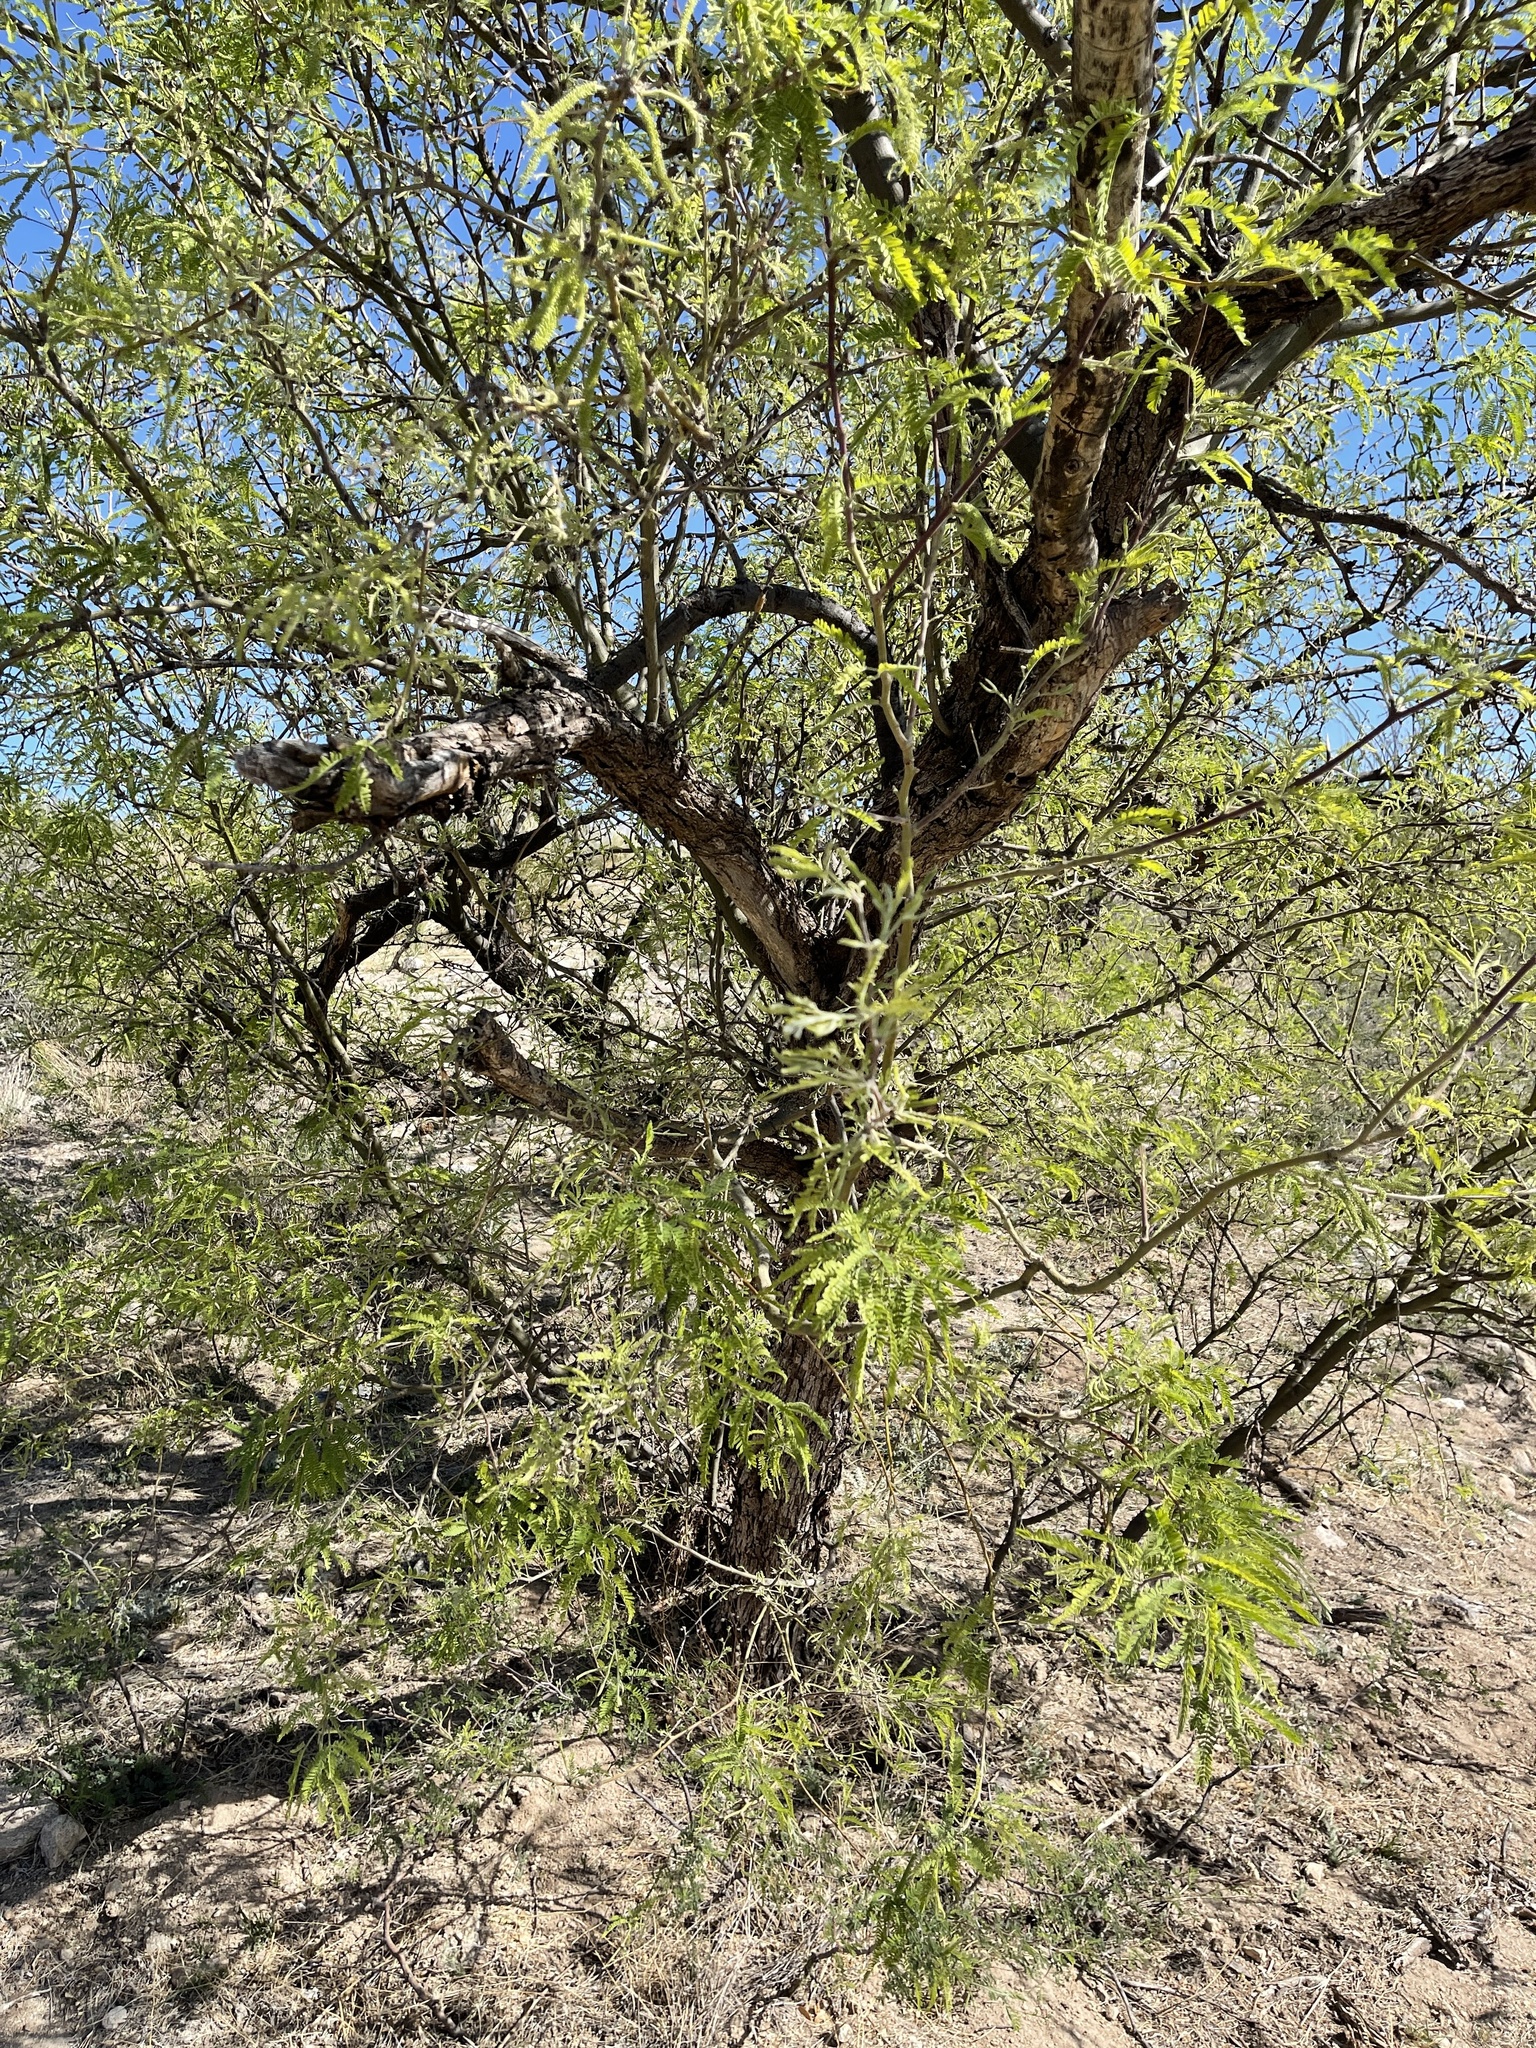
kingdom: Plantae
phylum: Tracheophyta
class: Magnoliopsida
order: Fabales
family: Fabaceae
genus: Prosopis
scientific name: Prosopis velutina
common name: Velvet mesquite
